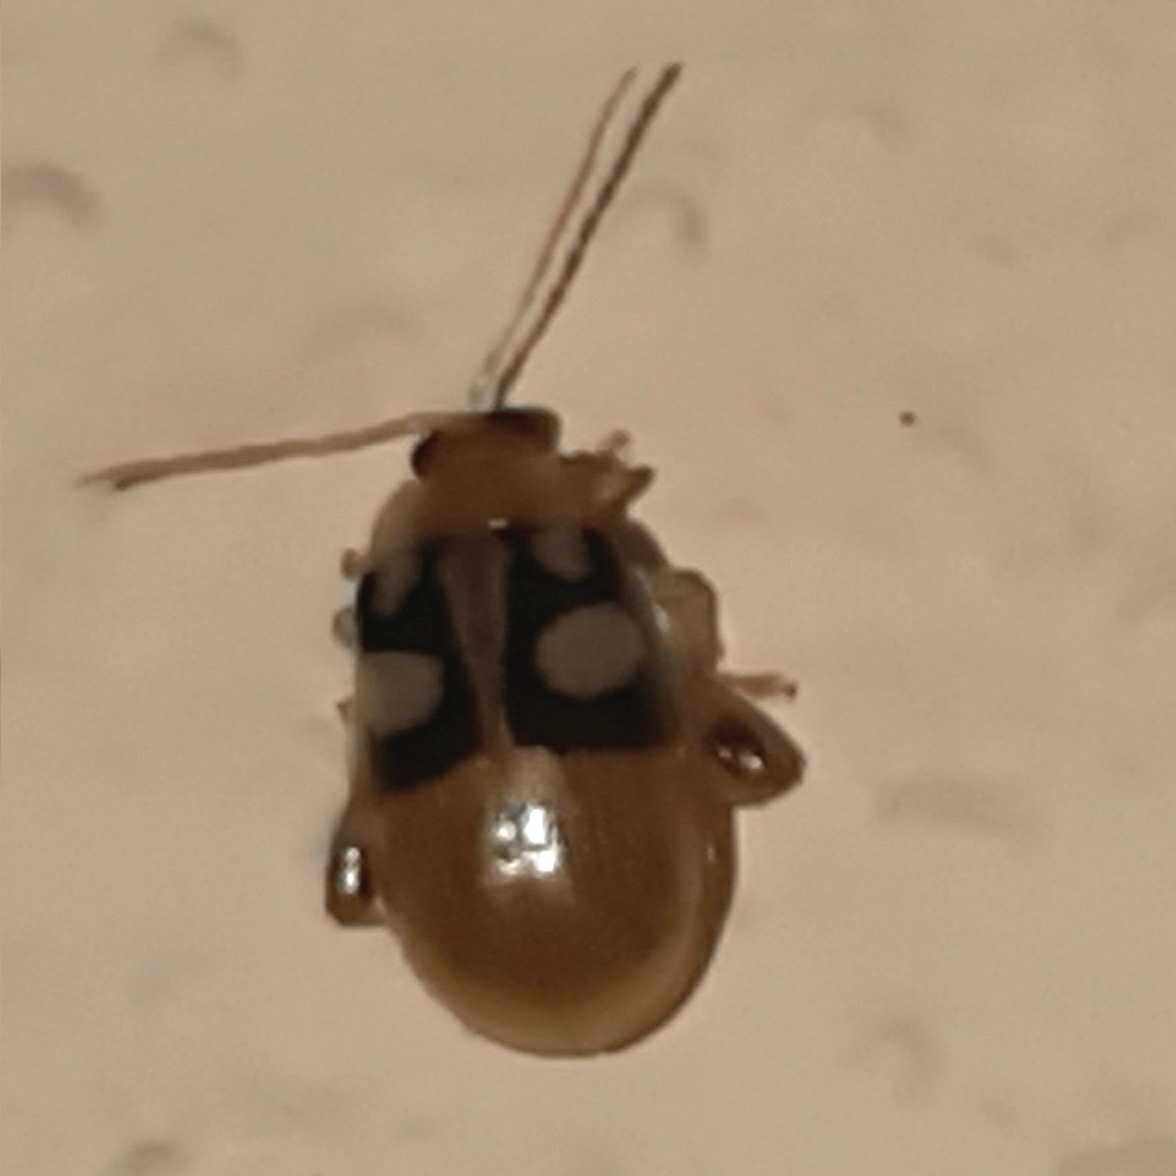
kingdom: Animalia
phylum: Arthropoda
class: Insecta
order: Coleoptera
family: Chrysomelidae
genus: Walterianella
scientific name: Walterianella
